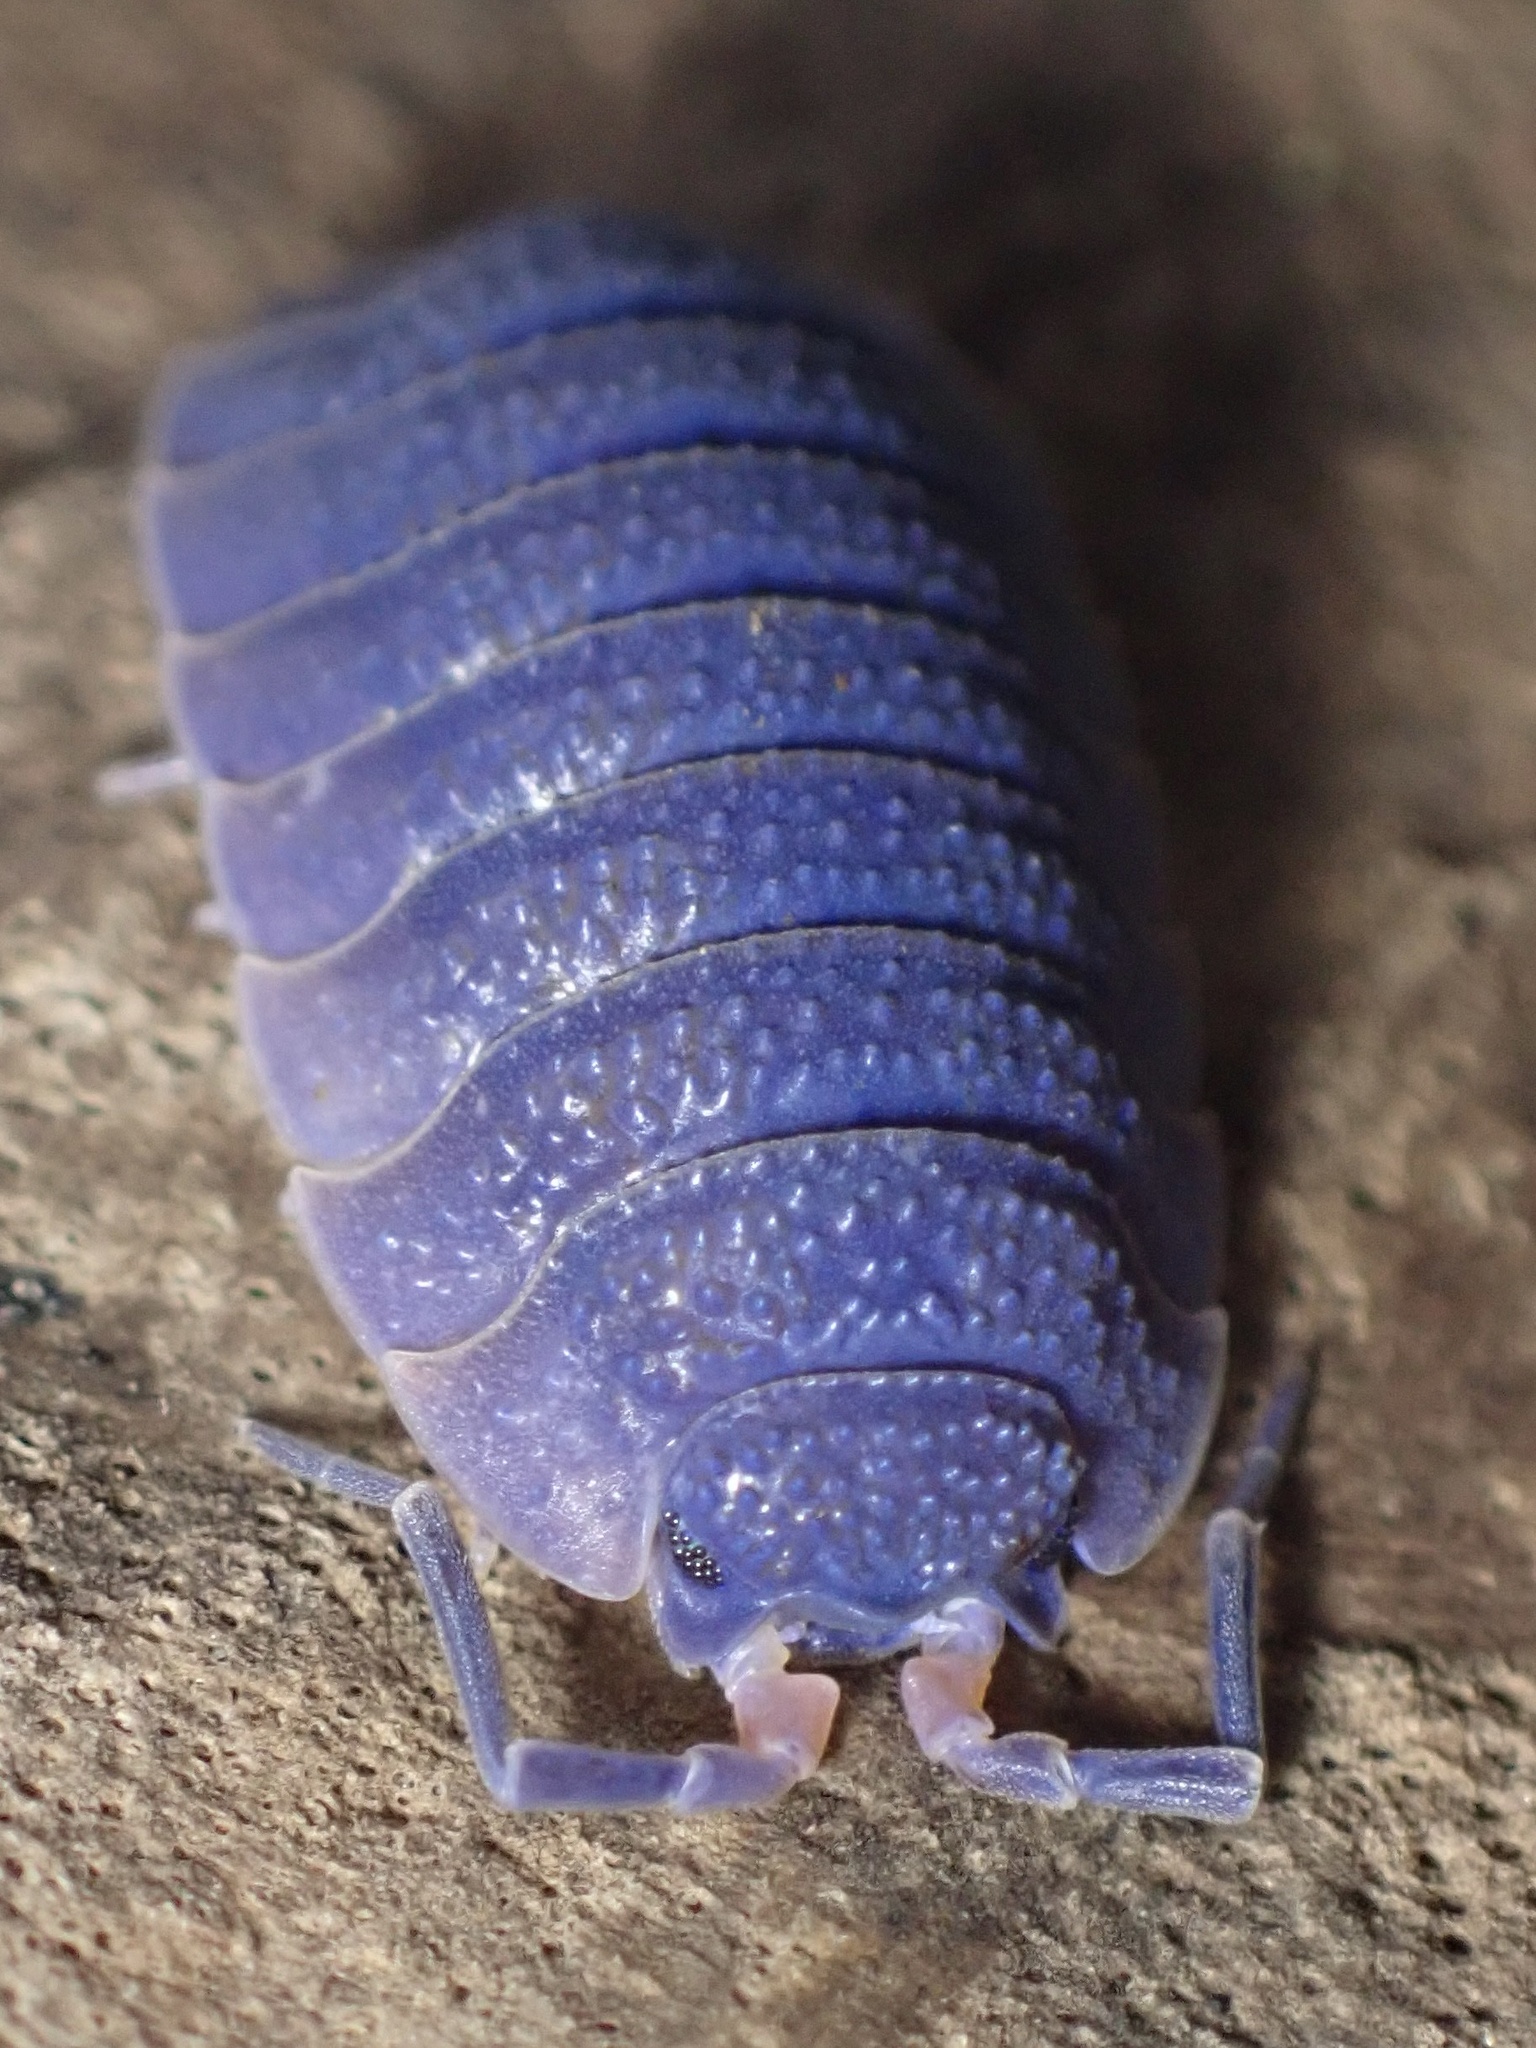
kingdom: Viruses
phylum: Nucleocytoviricota
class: Megaviricetes
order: Pimascovirales
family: Iridoviridae
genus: Iridovirus
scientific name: Iridovirus Invertebrate iridescent virus 31
